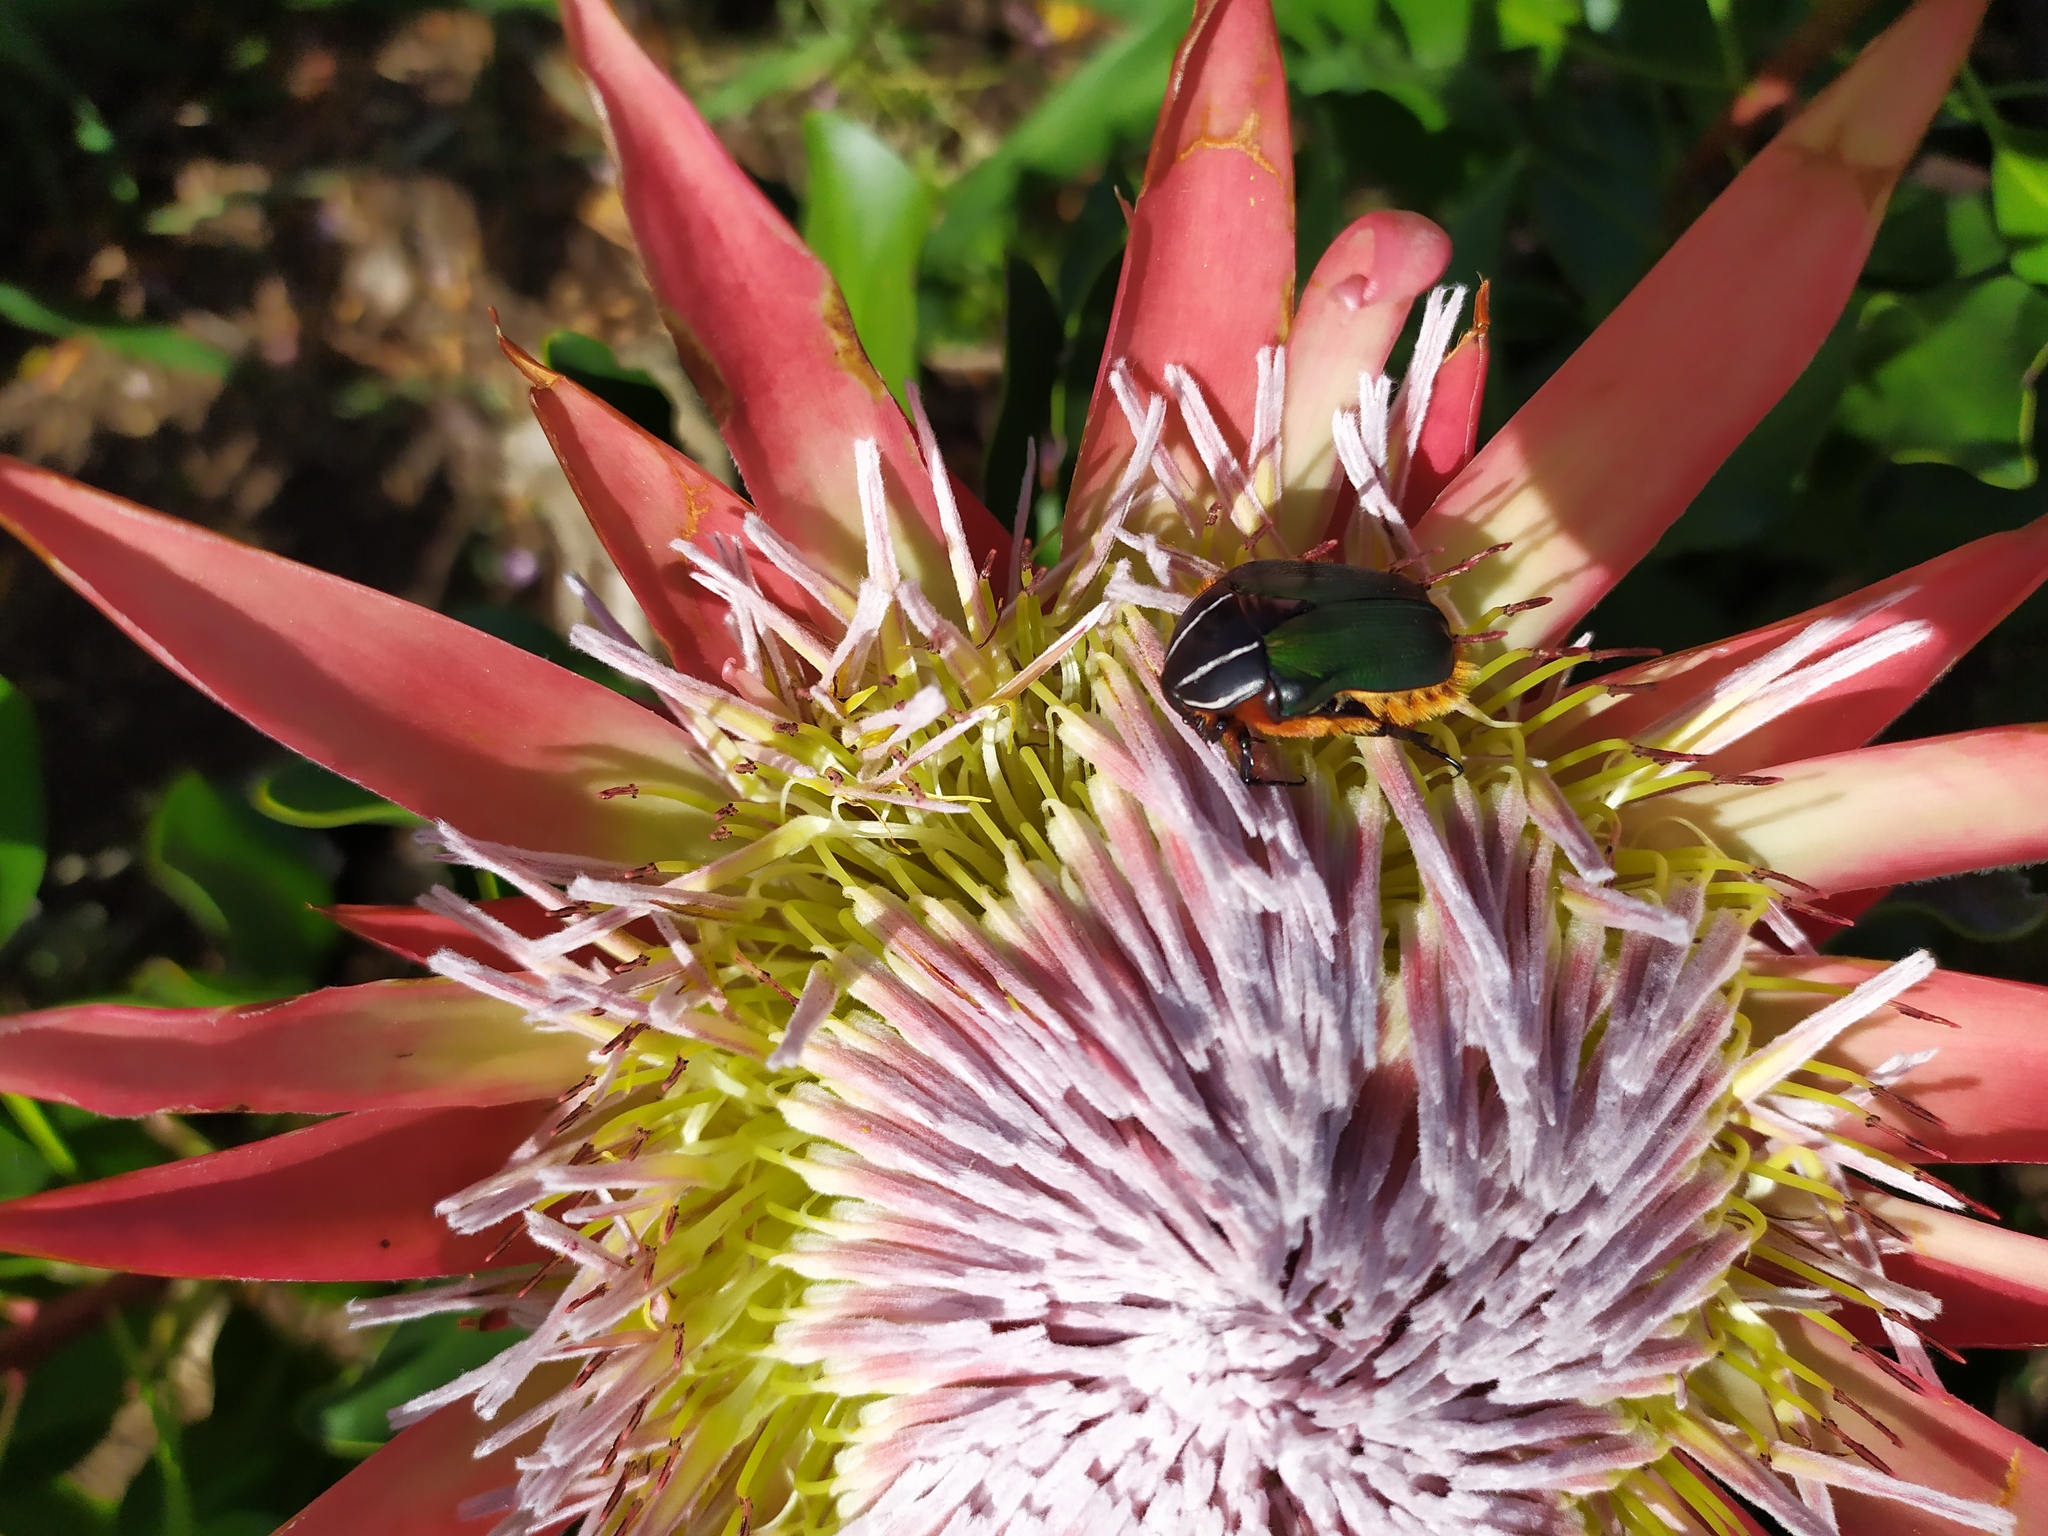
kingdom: Animalia
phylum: Arthropoda
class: Insecta
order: Coleoptera
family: Scarabaeidae
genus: Trichostetha
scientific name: Trichostetha fascicularis
